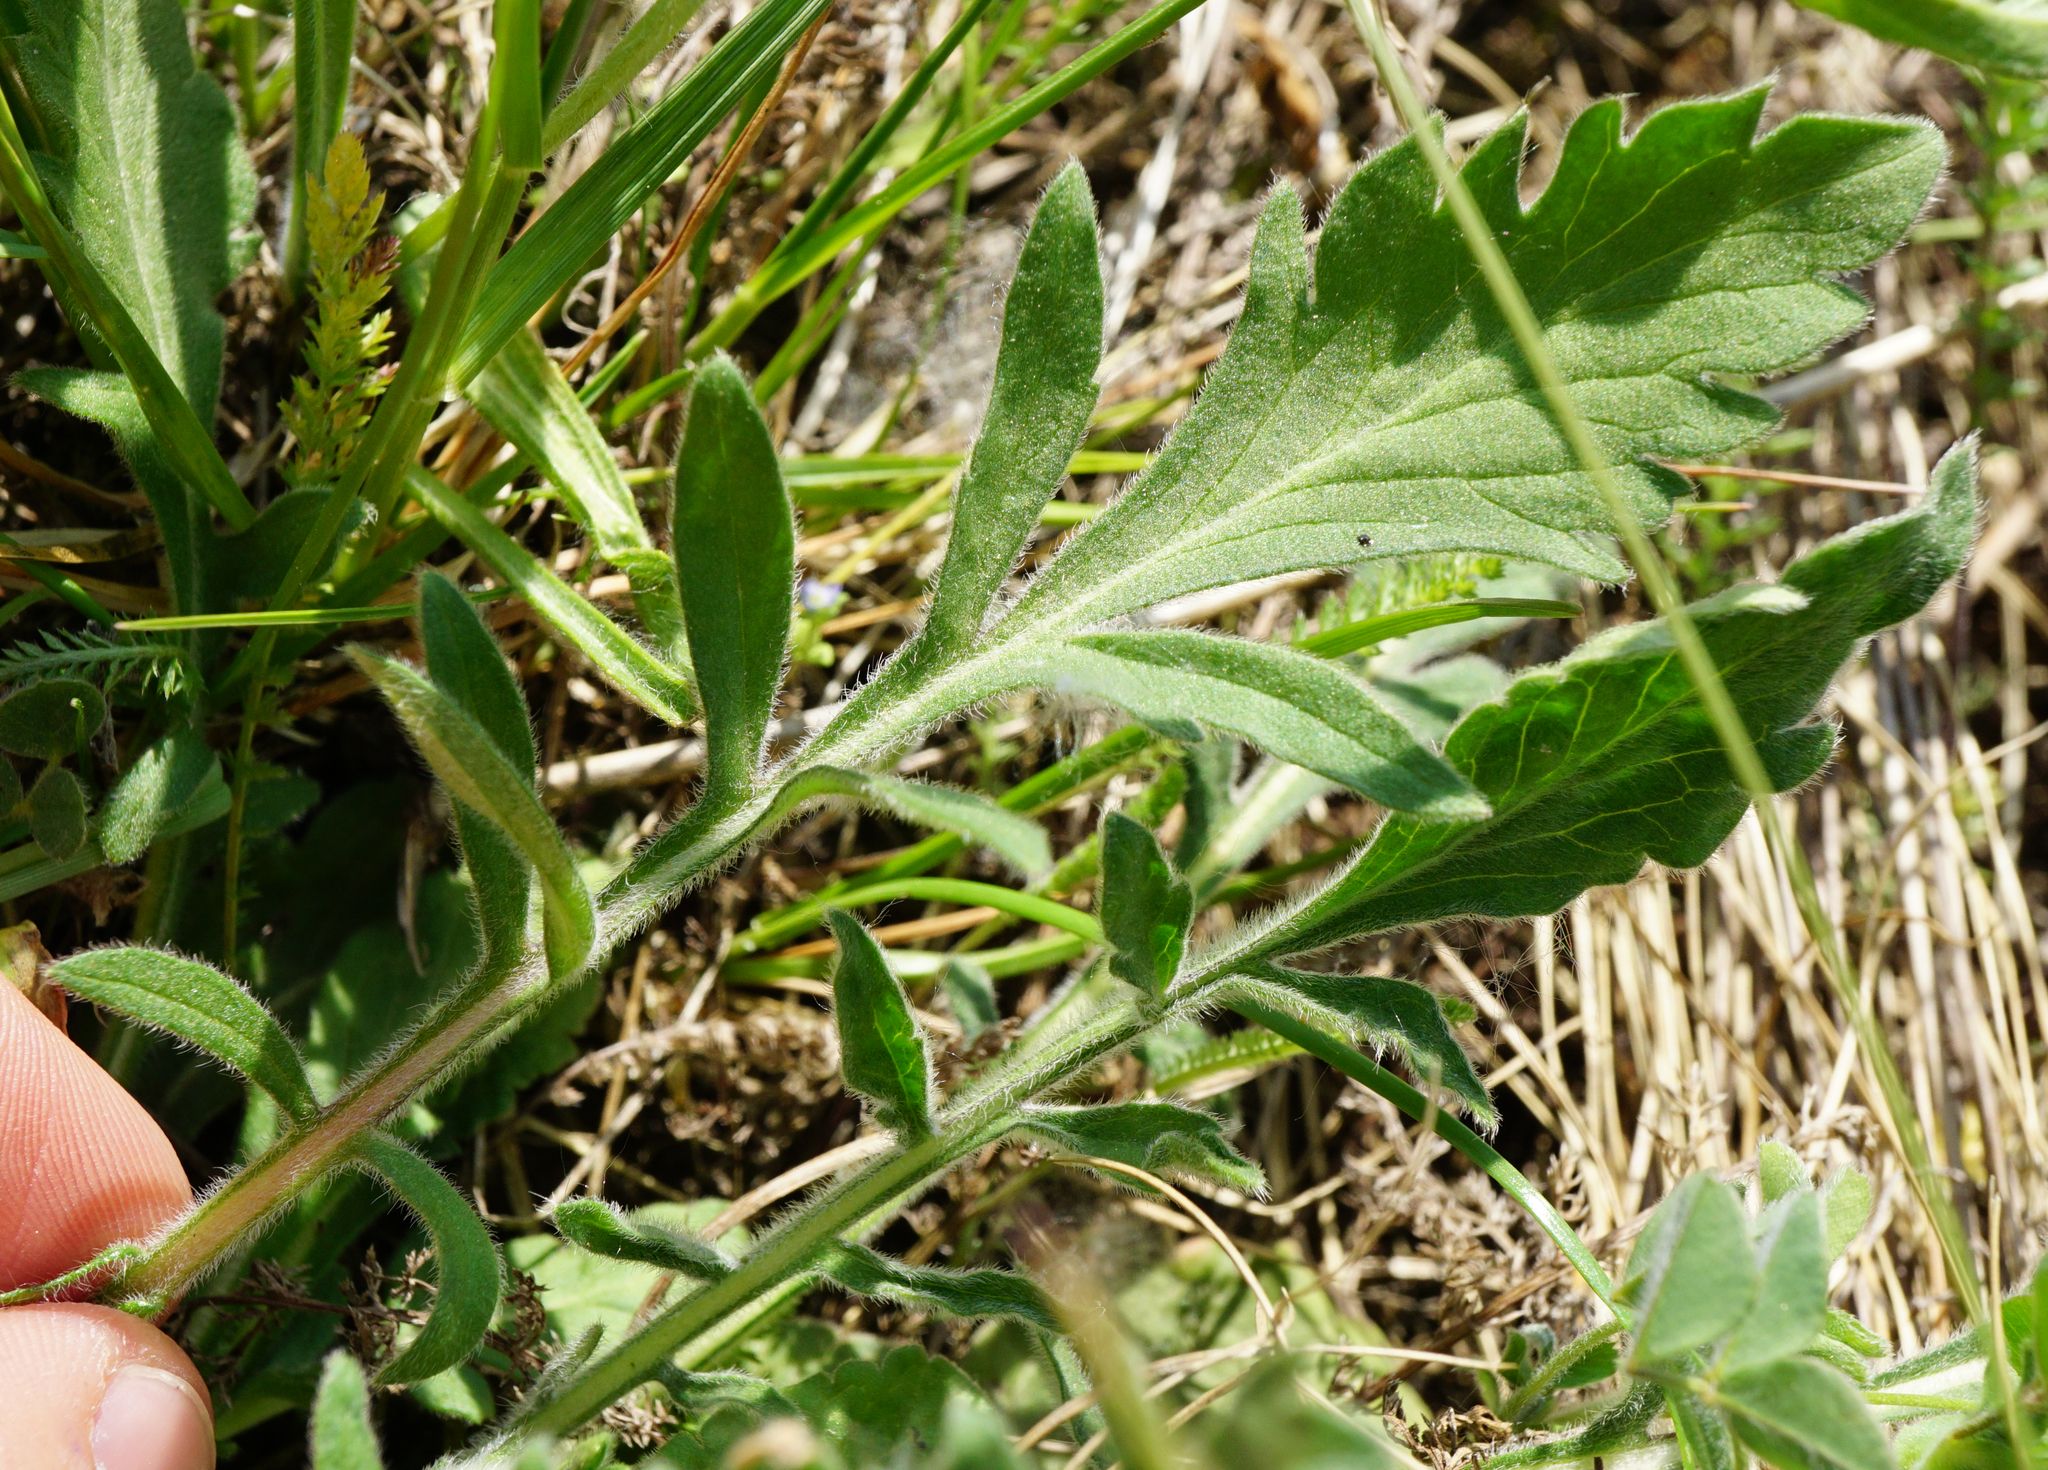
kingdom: Plantae
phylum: Tracheophyta
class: Magnoliopsida
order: Dipsacales
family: Caprifoliaceae
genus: Scabiosa
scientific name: Scabiosa ochroleuca
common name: Cream pincushions
